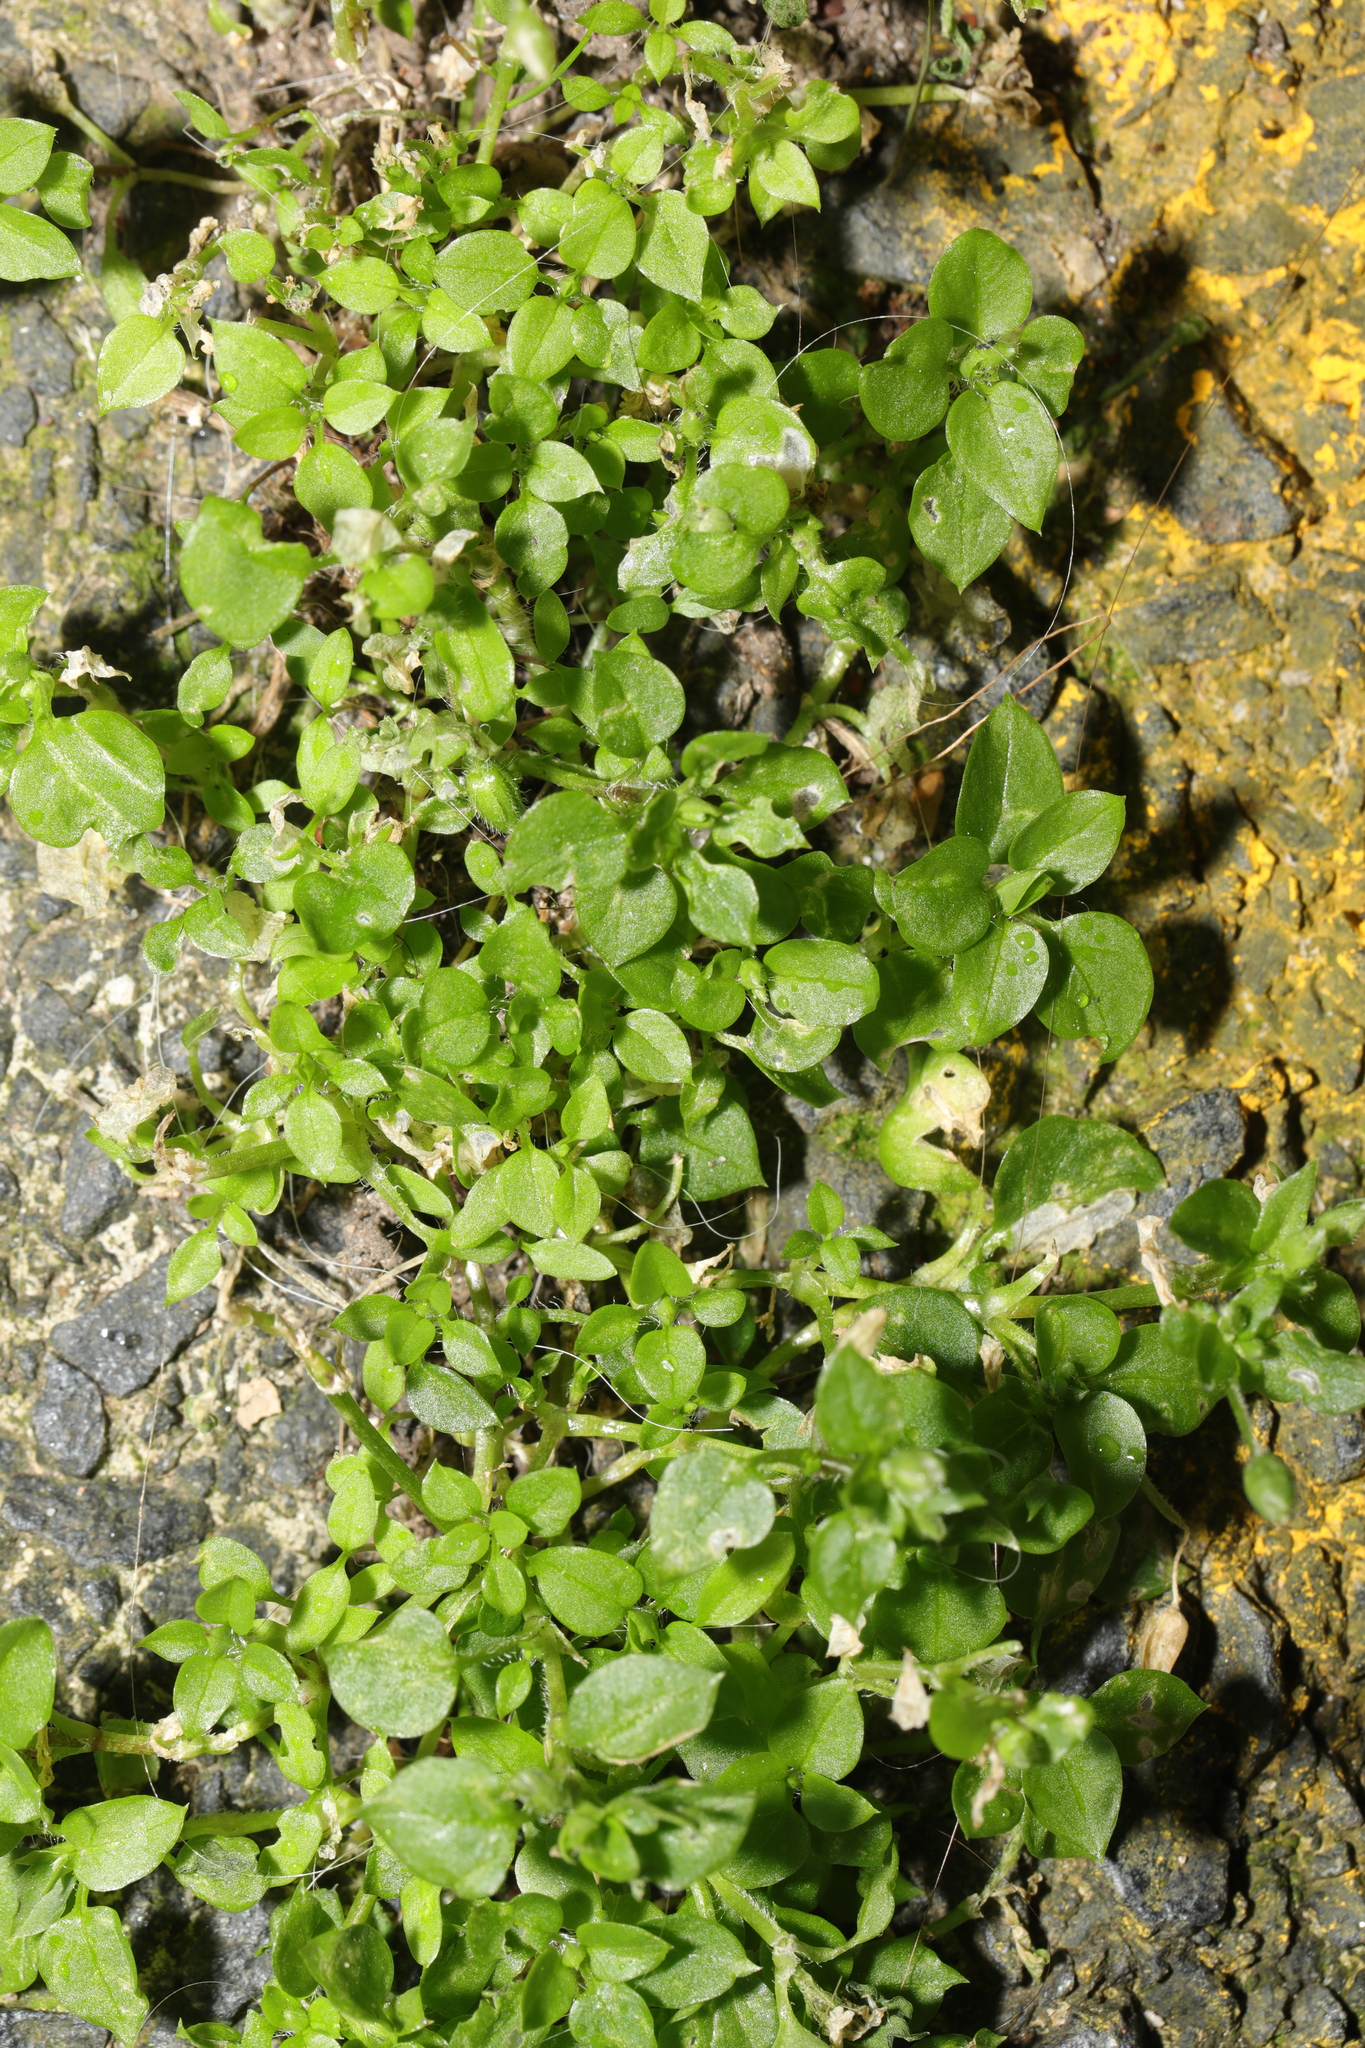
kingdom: Plantae
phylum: Tracheophyta
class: Magnoliopsida
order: Caryophyllales
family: Caryophyllaceae
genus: Stellaria
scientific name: Stellaria media
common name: Common chickweed
